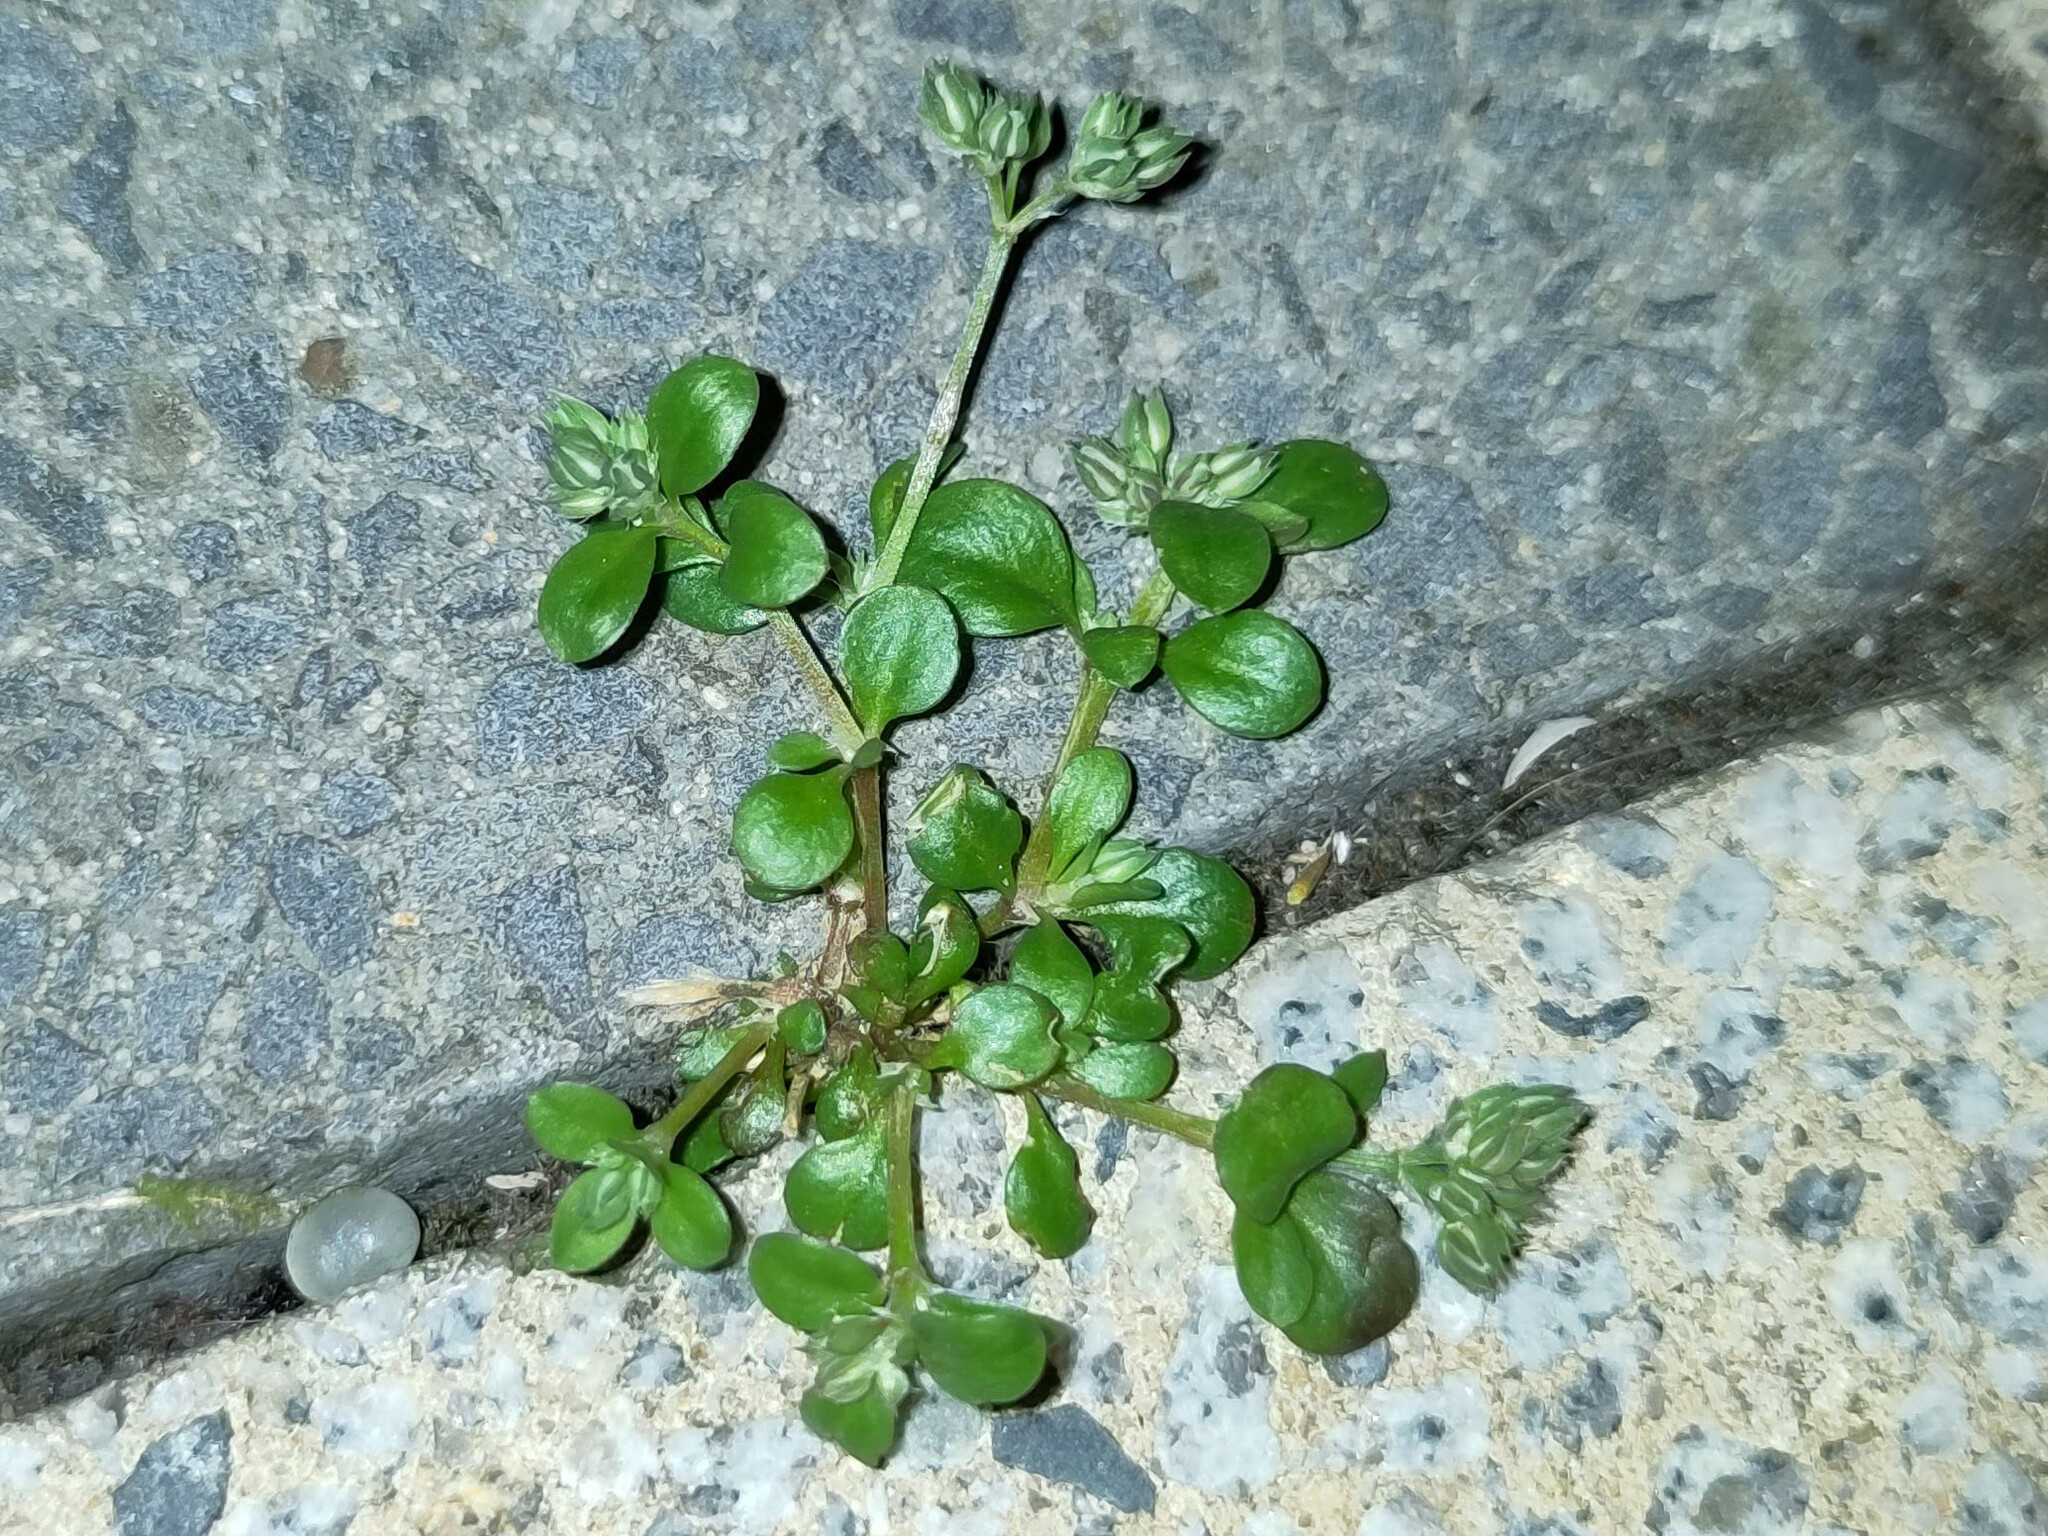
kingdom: Plantae
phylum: Tracheophyta
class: Magnoliopsida
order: Caryophyllales
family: Caryophyllaceae
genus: Polycarpon
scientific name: Polycarpon tetraphyllum
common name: Four-leaved all-seed
